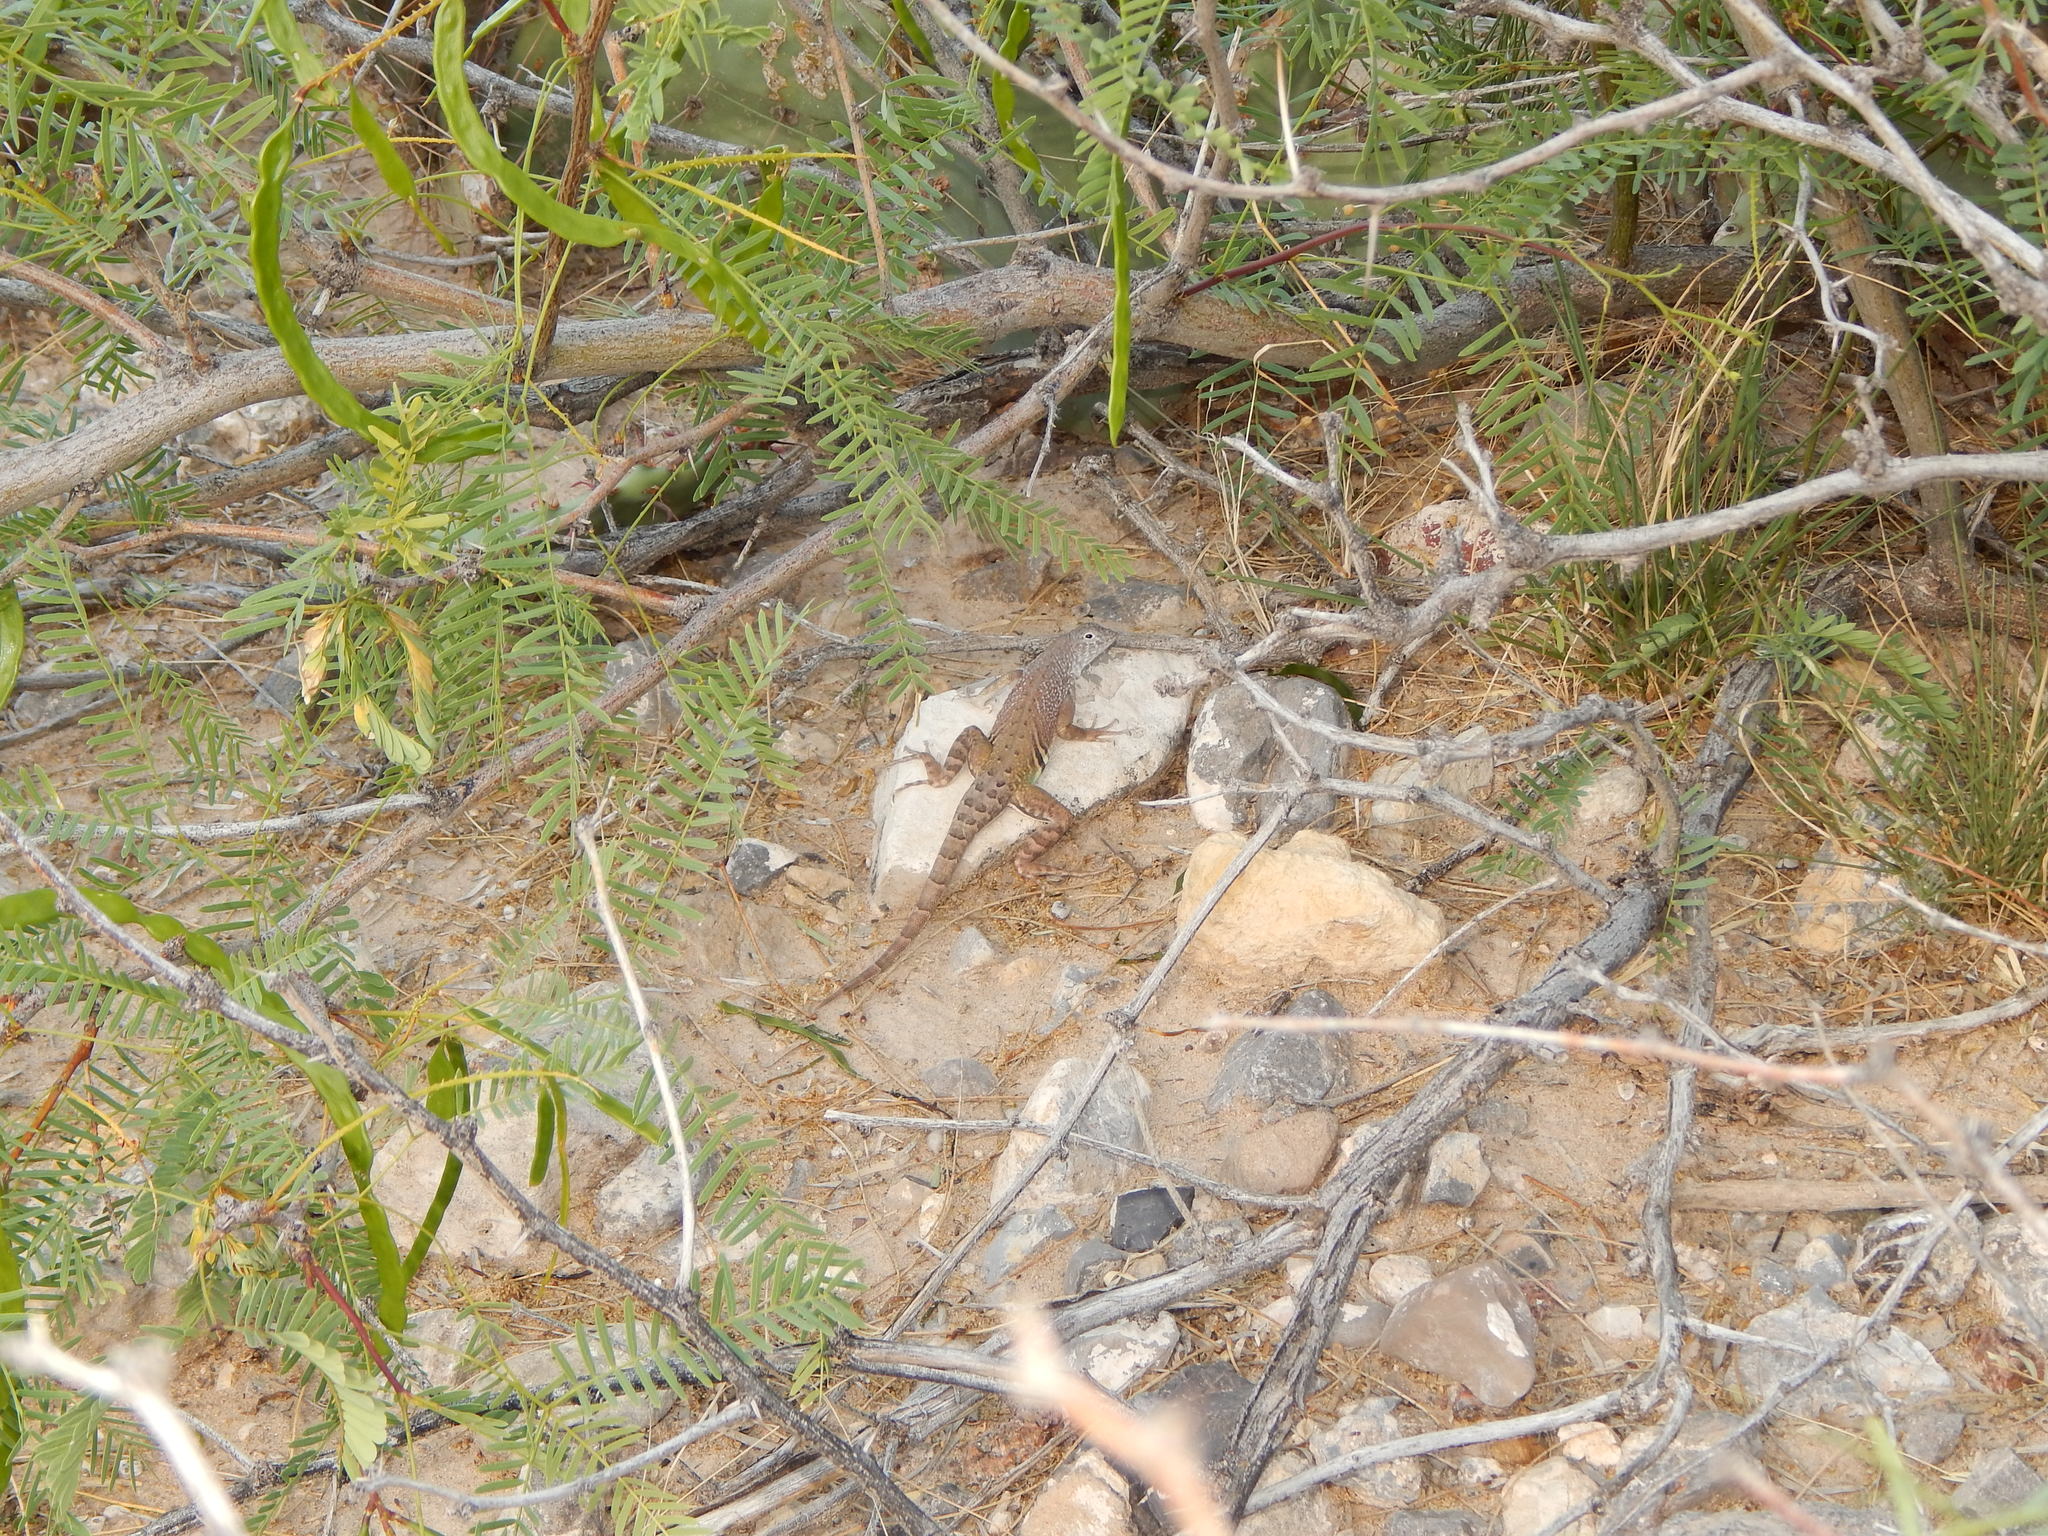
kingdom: Animalia
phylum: Chordata
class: Squamata
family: Phrynosomatidae
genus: Cophosaurus
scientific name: Cophosaurus texanus
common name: Greater earless lizard
